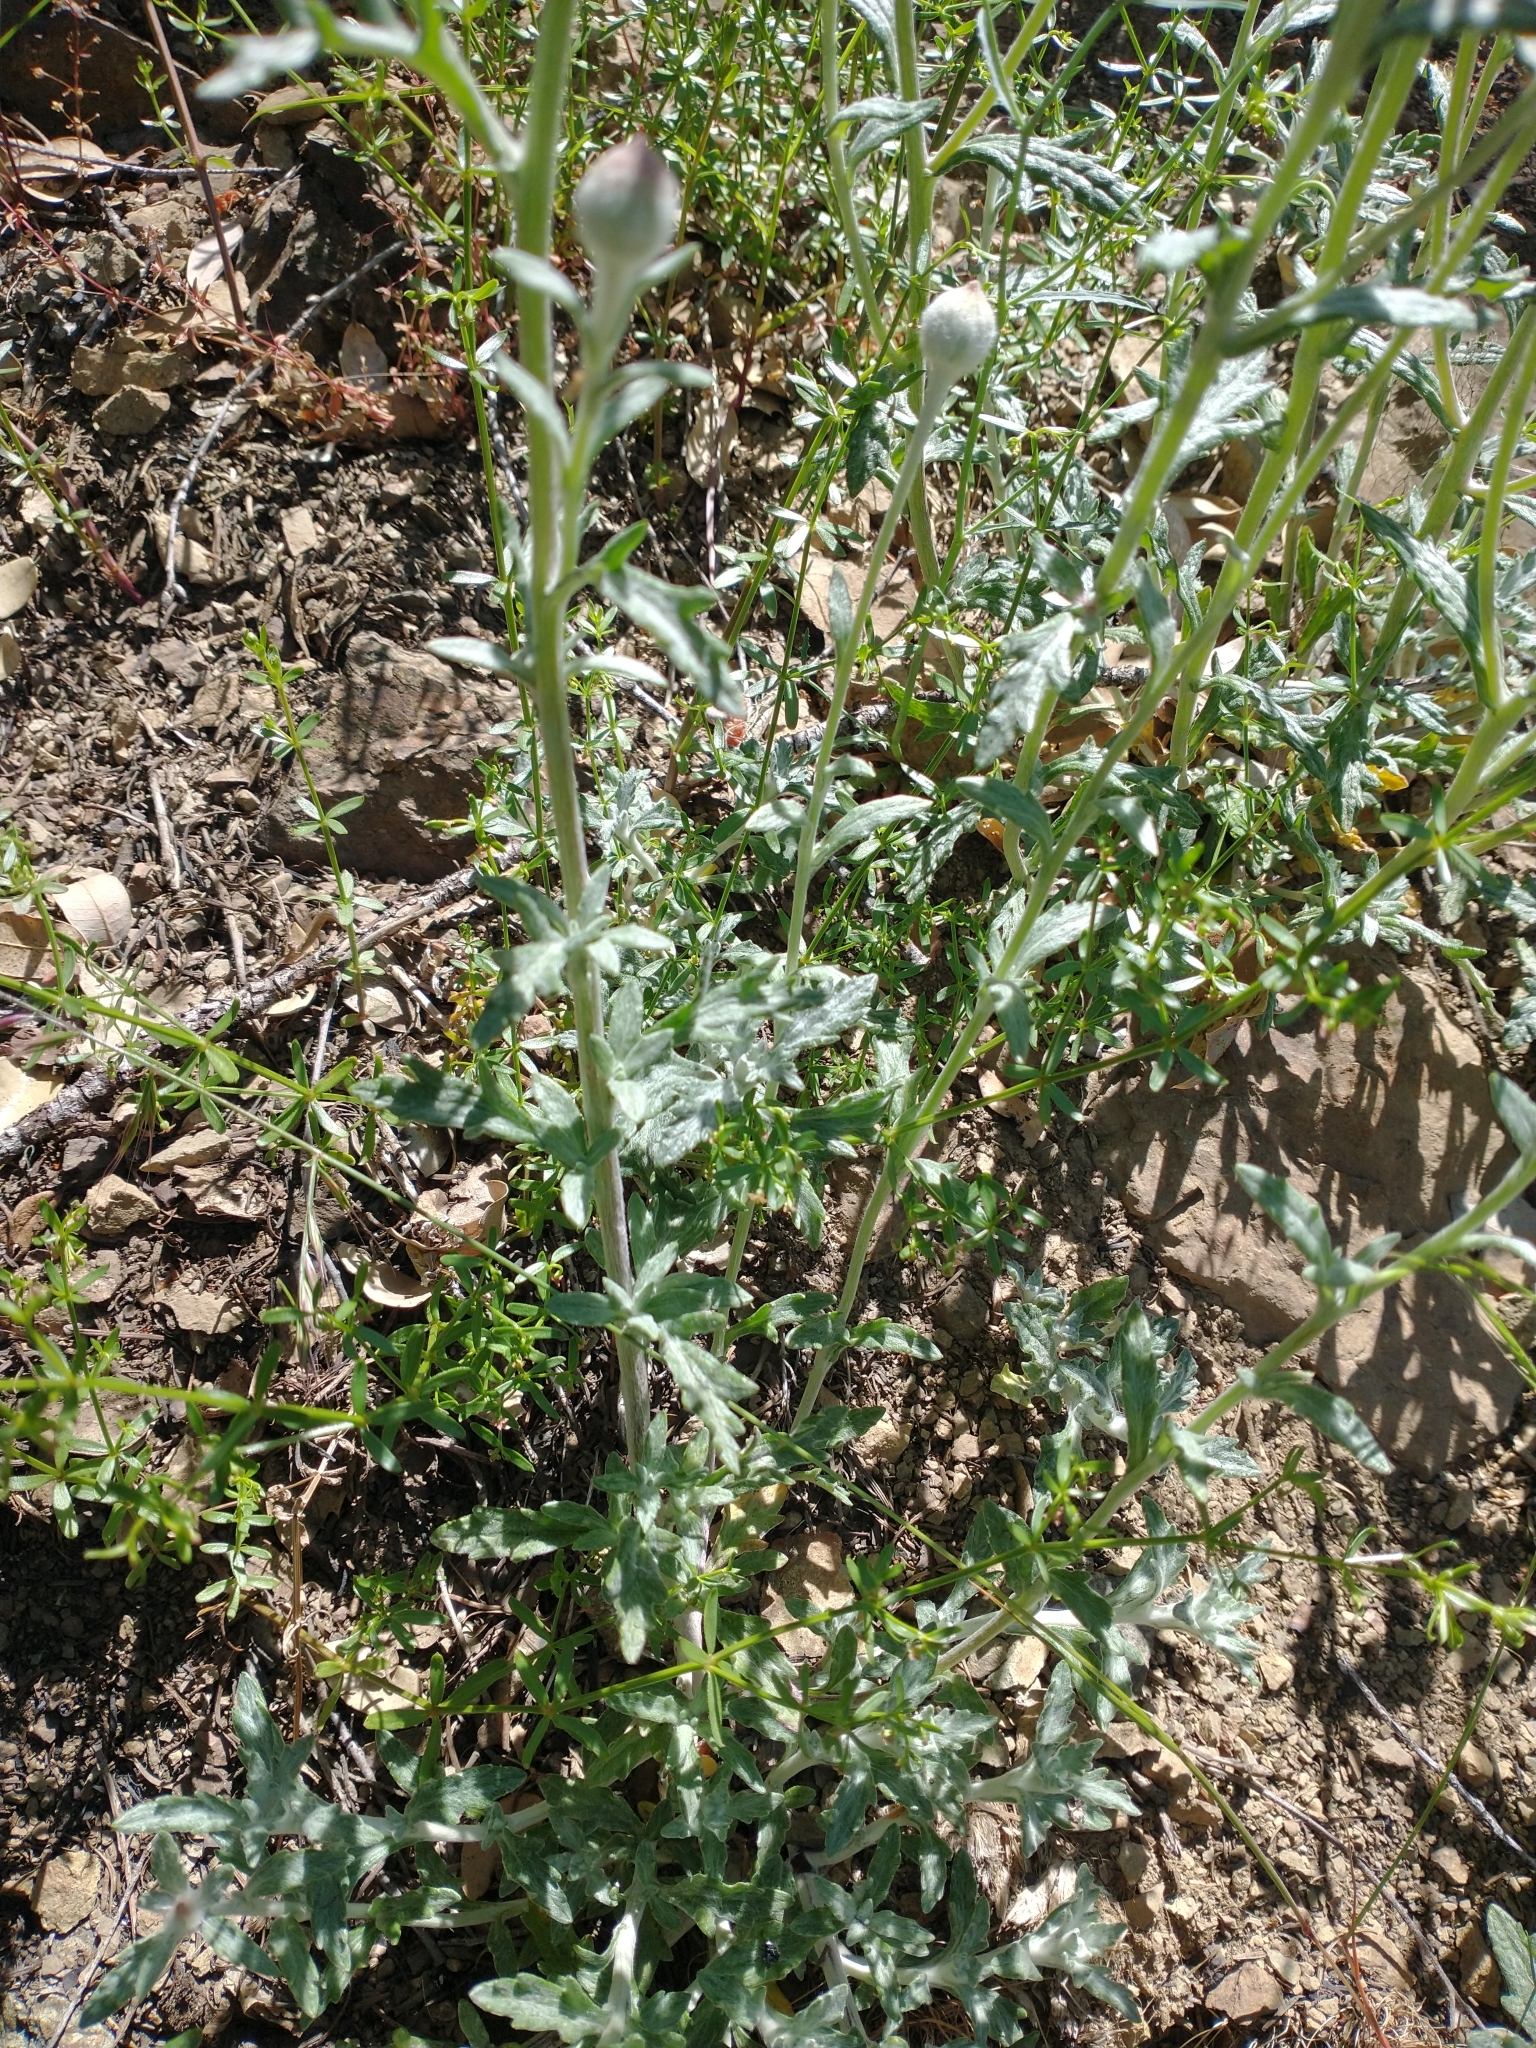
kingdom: Plantae
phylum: Tracheophyta
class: Magnoliopsida
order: Asterales
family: Asteraceae
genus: Eriophyllum
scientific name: Eriophyllum lanatum
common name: Common woolly-sunflower
